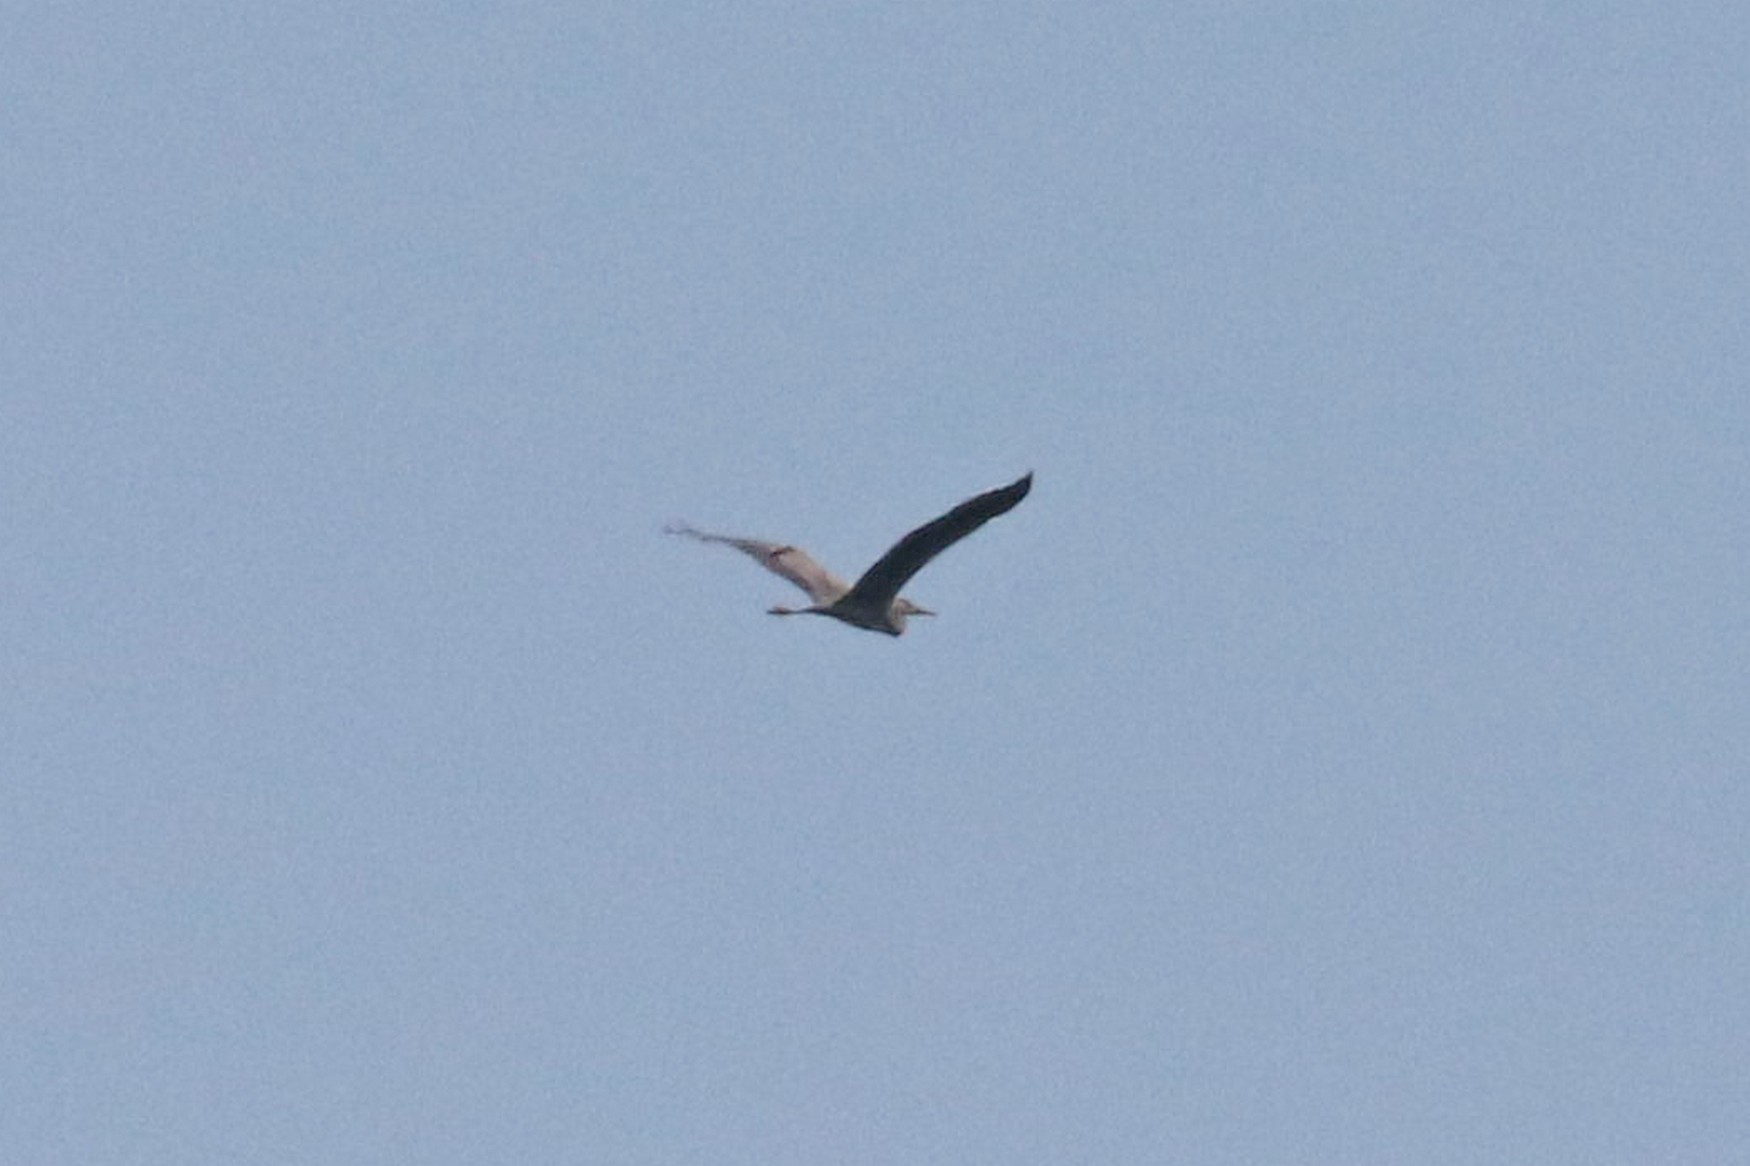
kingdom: Animalia
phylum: Chordata
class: Aves
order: Pelecaniformes
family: Ardeidae
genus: Ardea
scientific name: Ardea cinerea
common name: Grey heron
